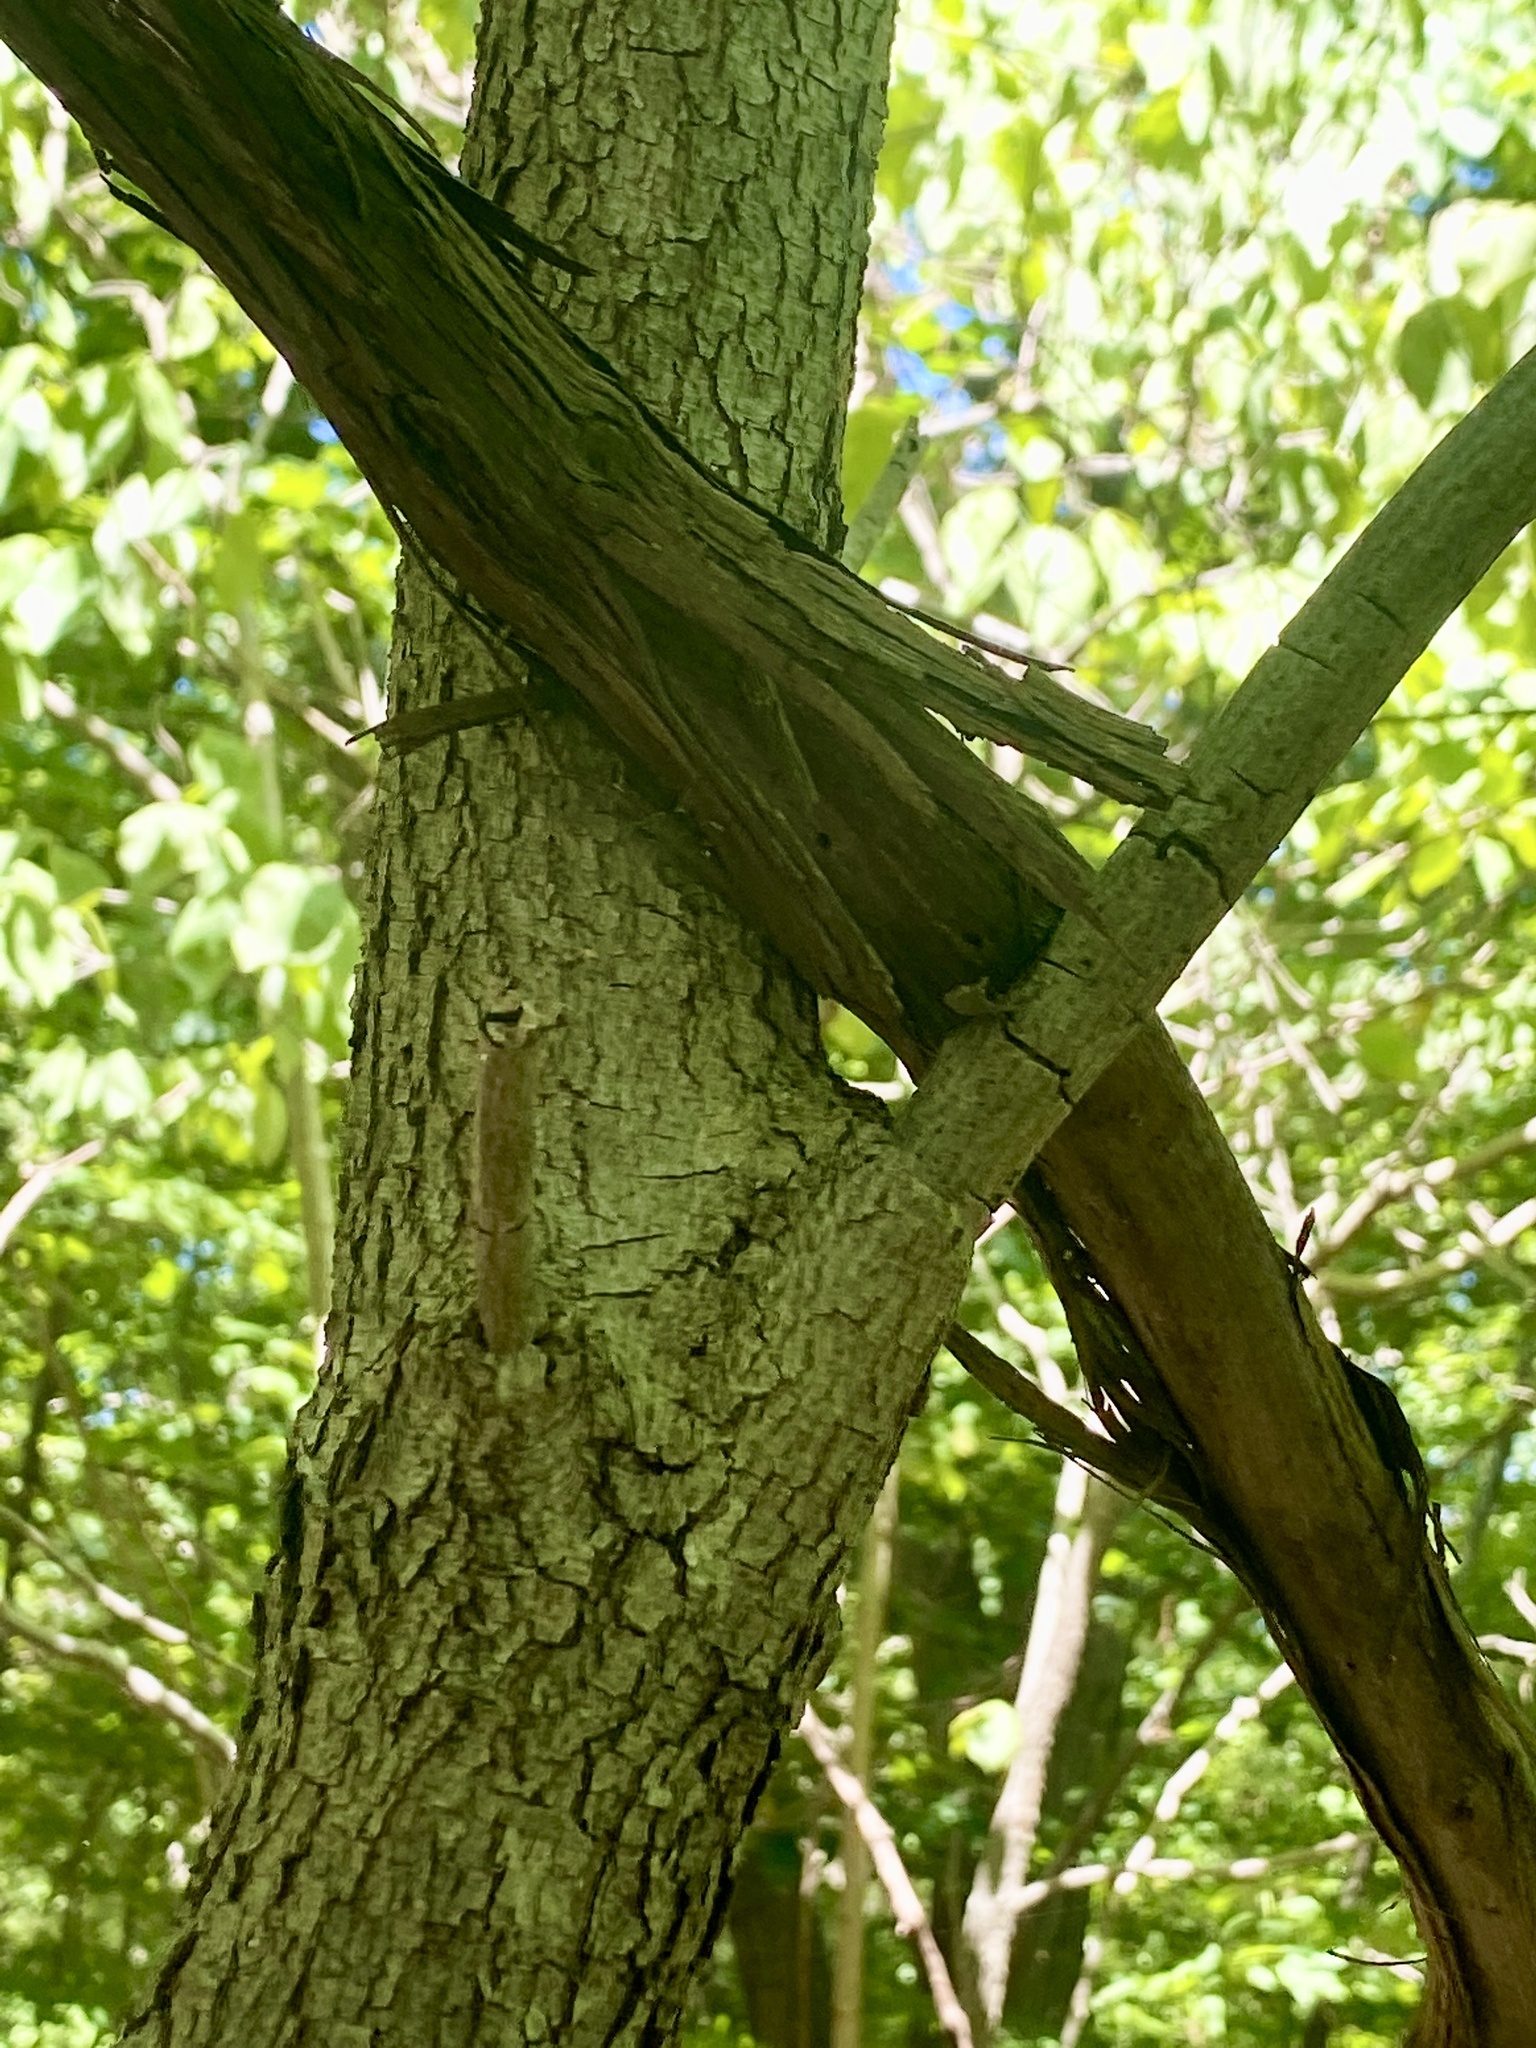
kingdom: Plantae
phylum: Tracheophyta
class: Magnoliopsida
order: Vitales
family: Vitaceae
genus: Vitis
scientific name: Vitis
